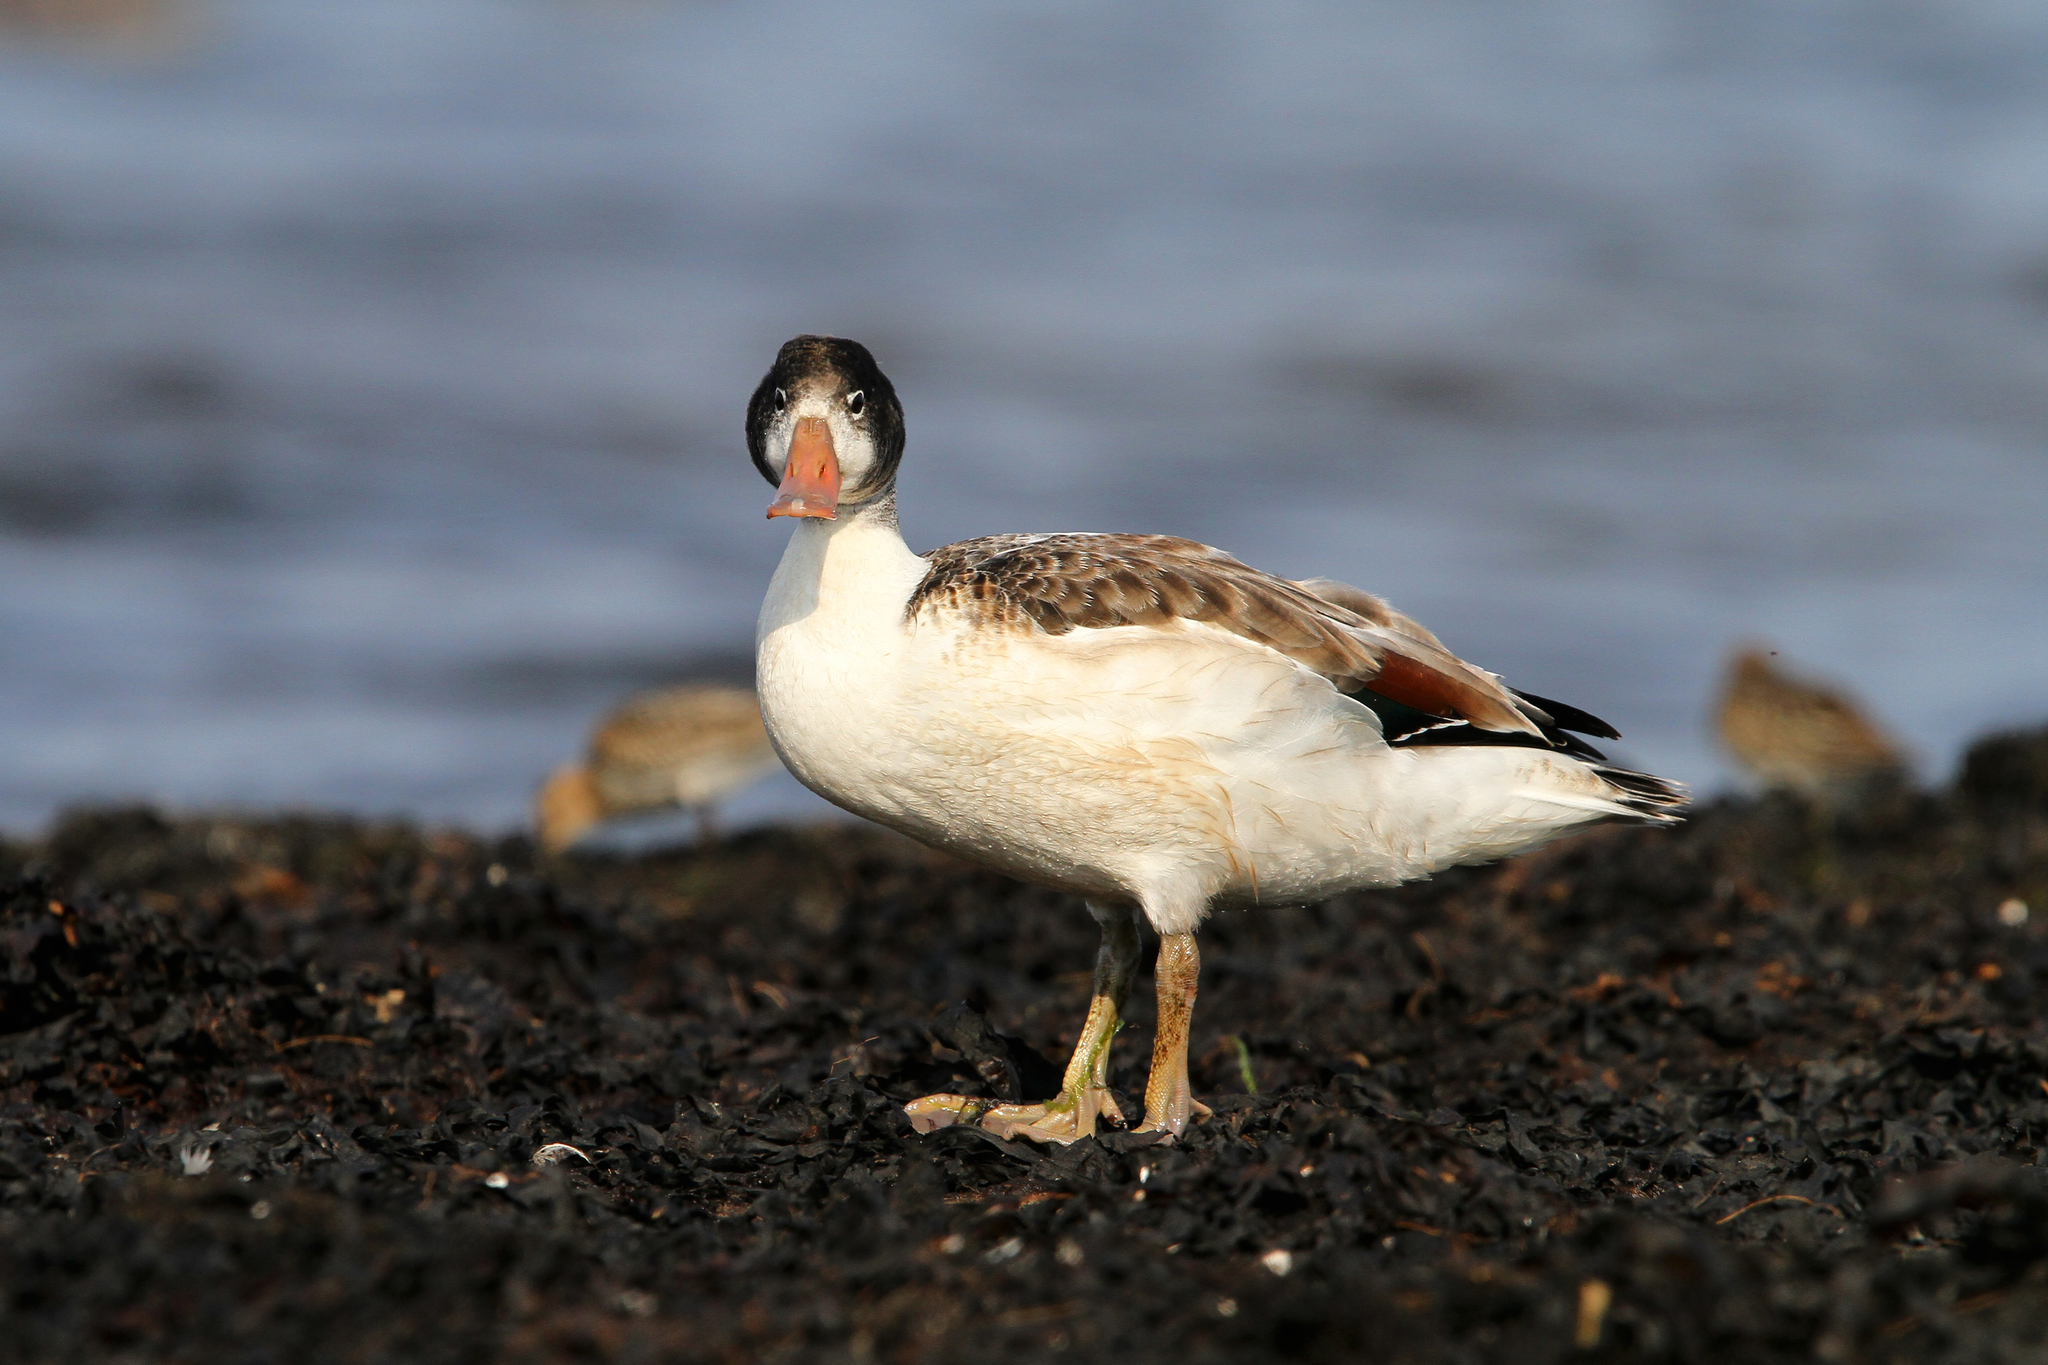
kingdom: Animalia
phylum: Chordata
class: Aves
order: Anseriformes
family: Anatidae
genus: Tadorna
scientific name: Tadorna tadorna
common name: Common shelduck
